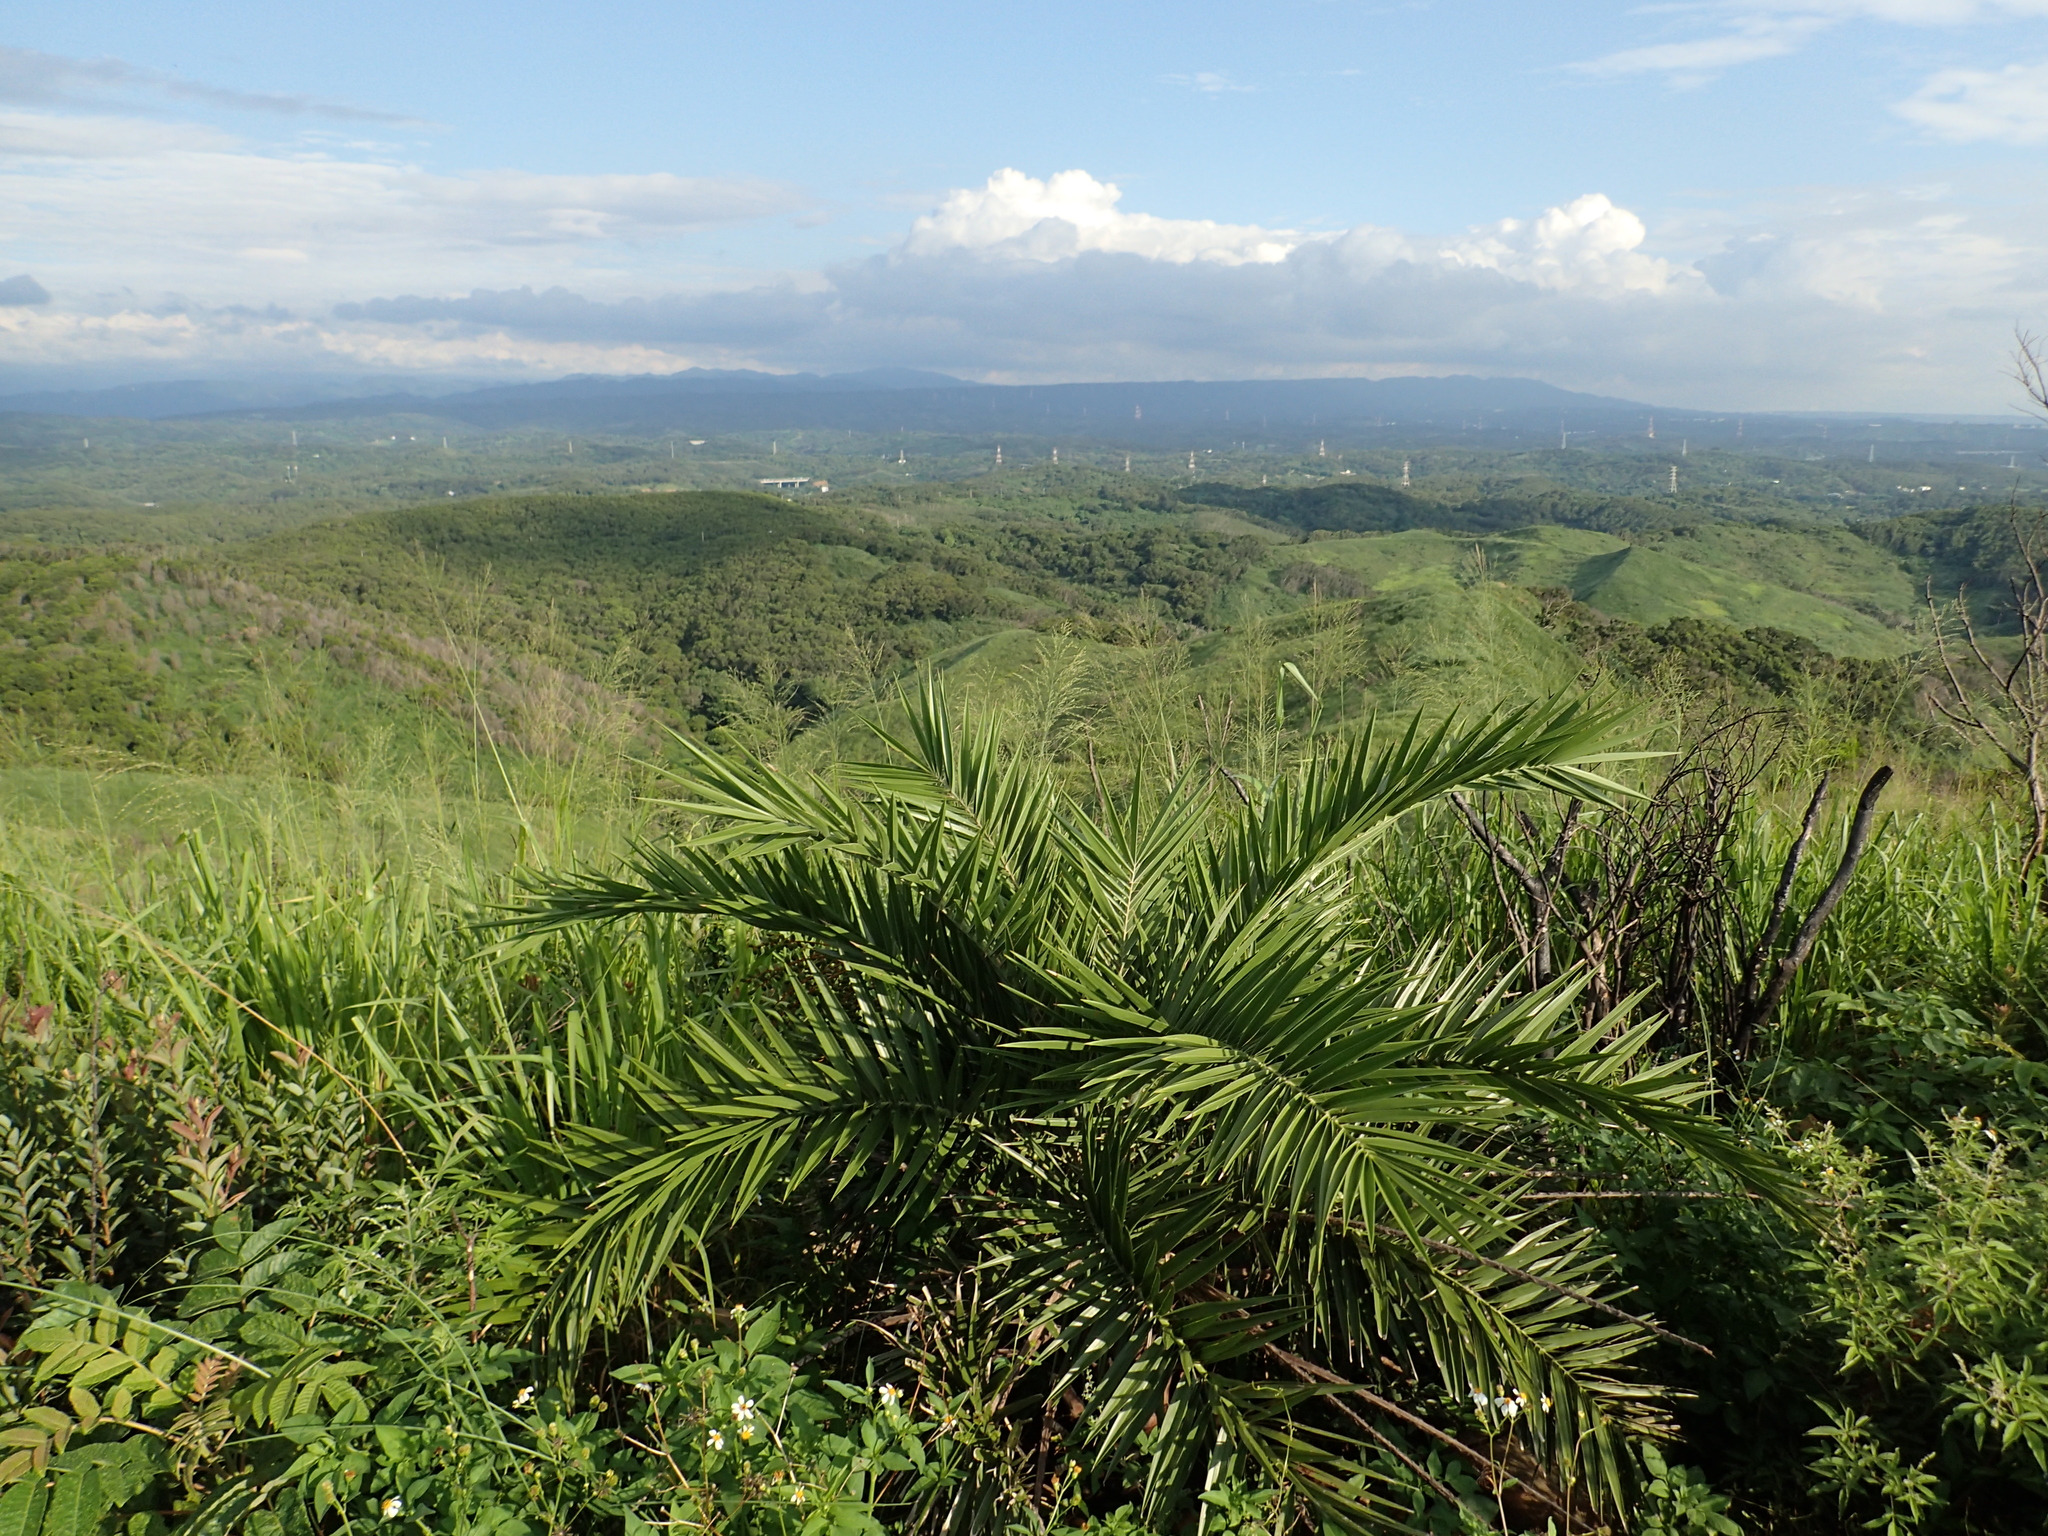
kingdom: Plantae
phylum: Tracheophyta
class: Liliopsida
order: Arecales
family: Arecaceae
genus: Phoenix
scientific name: Phoenix loureiroi
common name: Loureiro's palm
